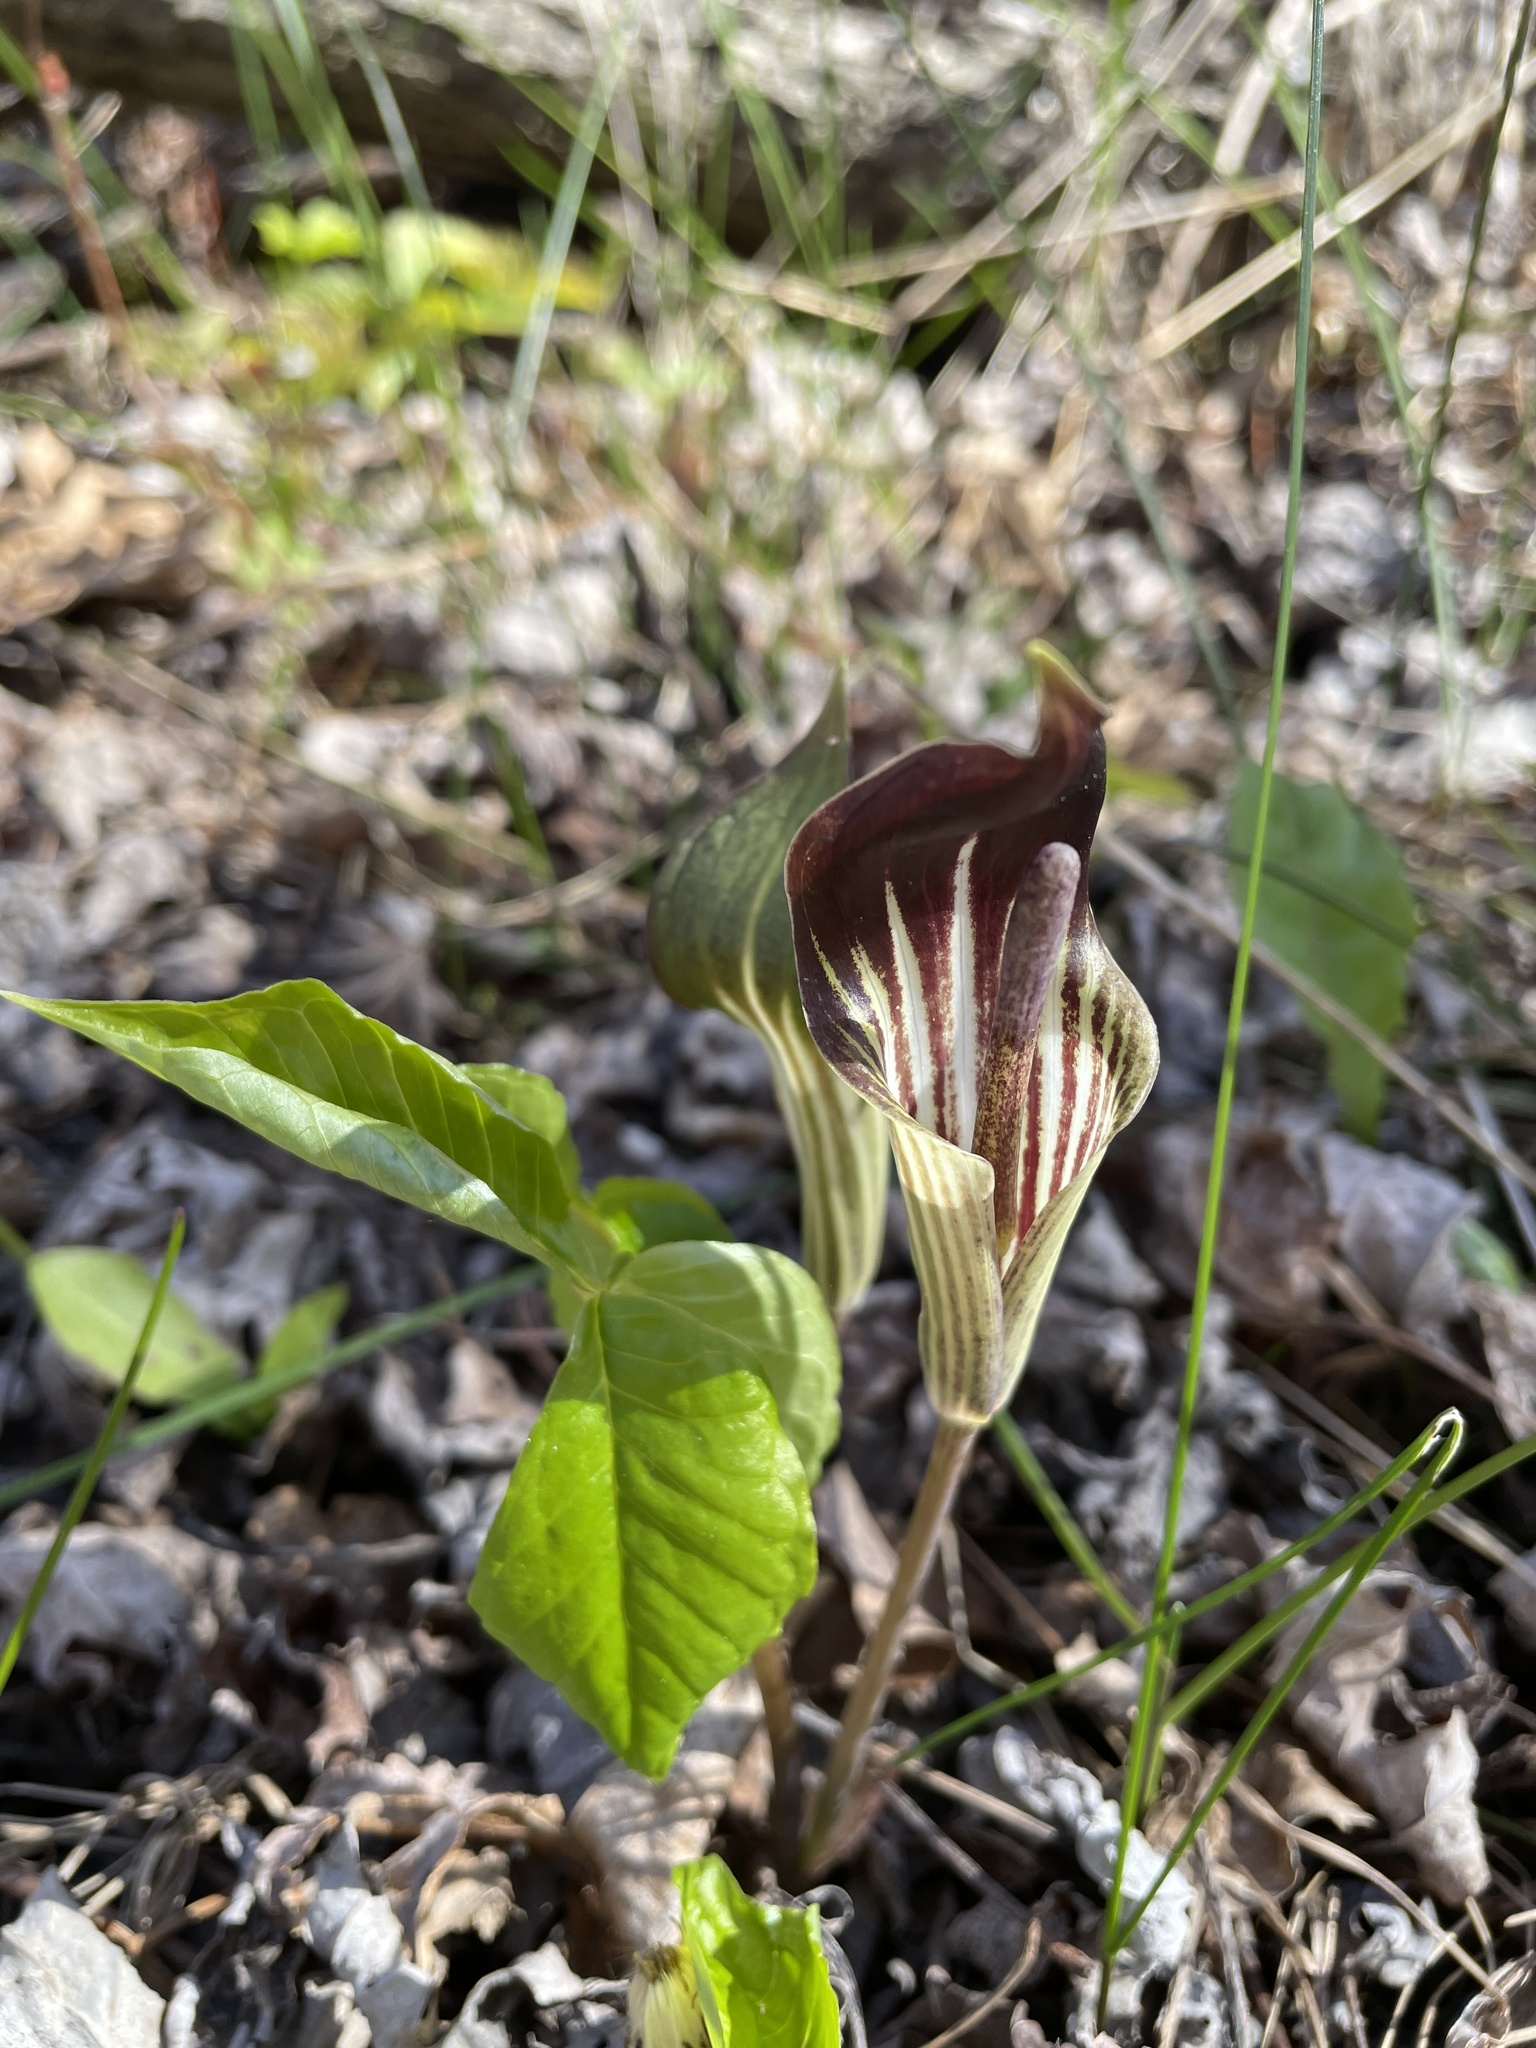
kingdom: Plantae
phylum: Tracheophyta
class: Liliopsida
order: Alismatales
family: Araceae
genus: Arisaema
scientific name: Arisaema triphyllum
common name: Jack-in-the-pulpit
